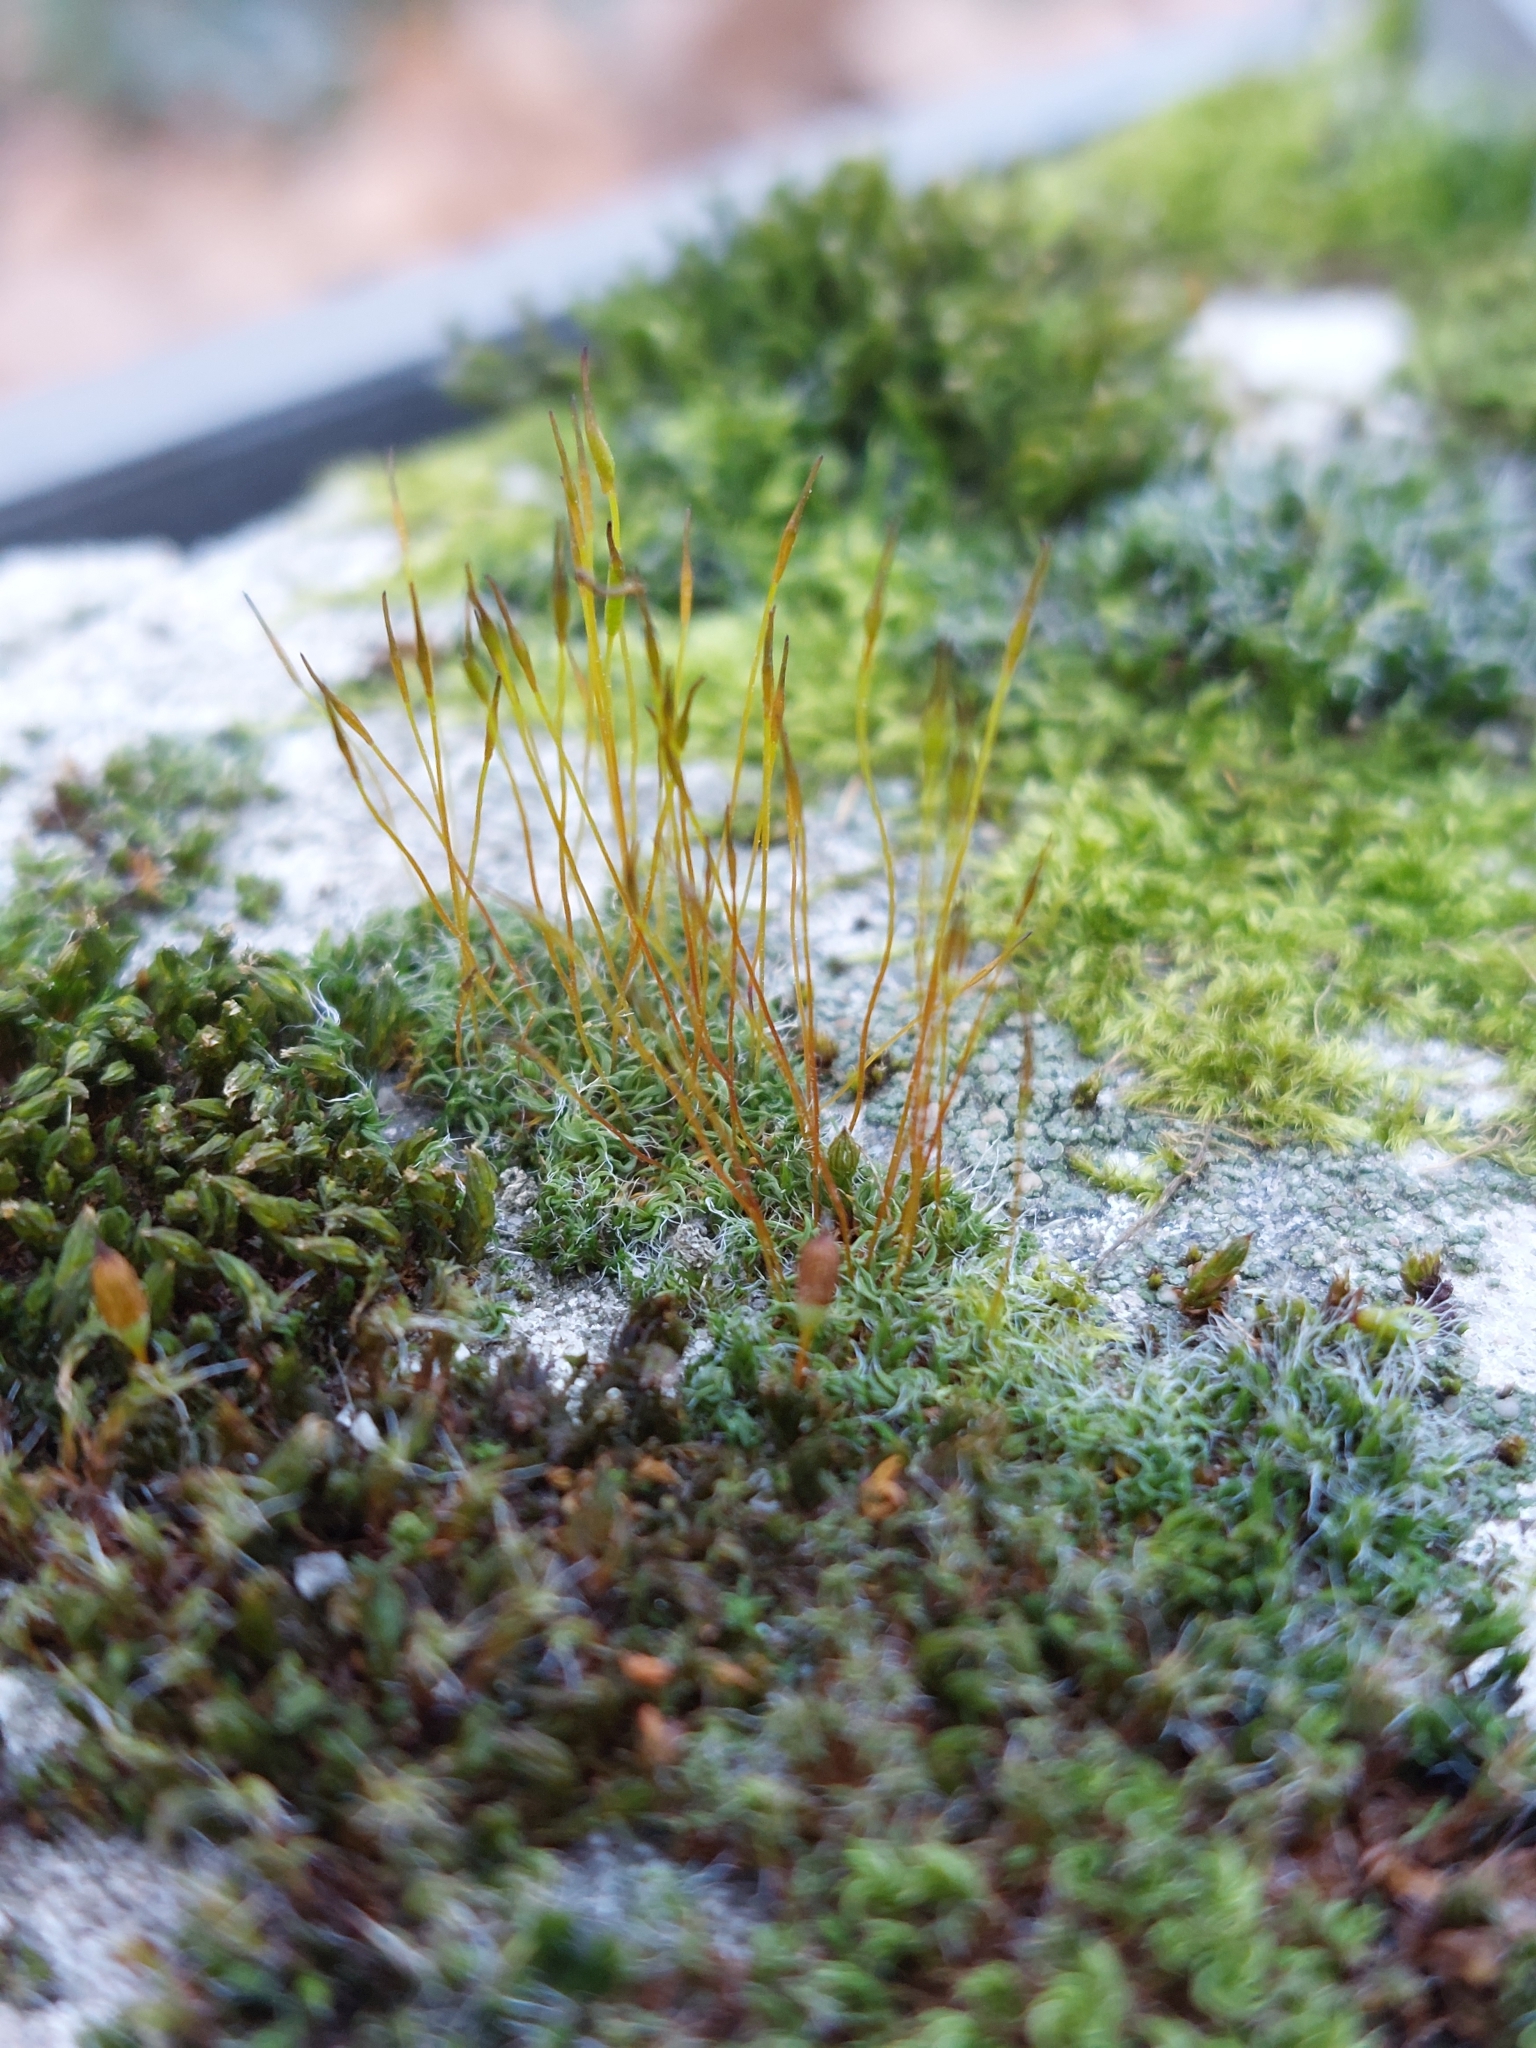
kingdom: Plantae
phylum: Bryophyta
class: Bryopsida
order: Pottiales
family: Pottiaceae
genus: Tortula
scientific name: Tortula muralis
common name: Wall screw-moss
